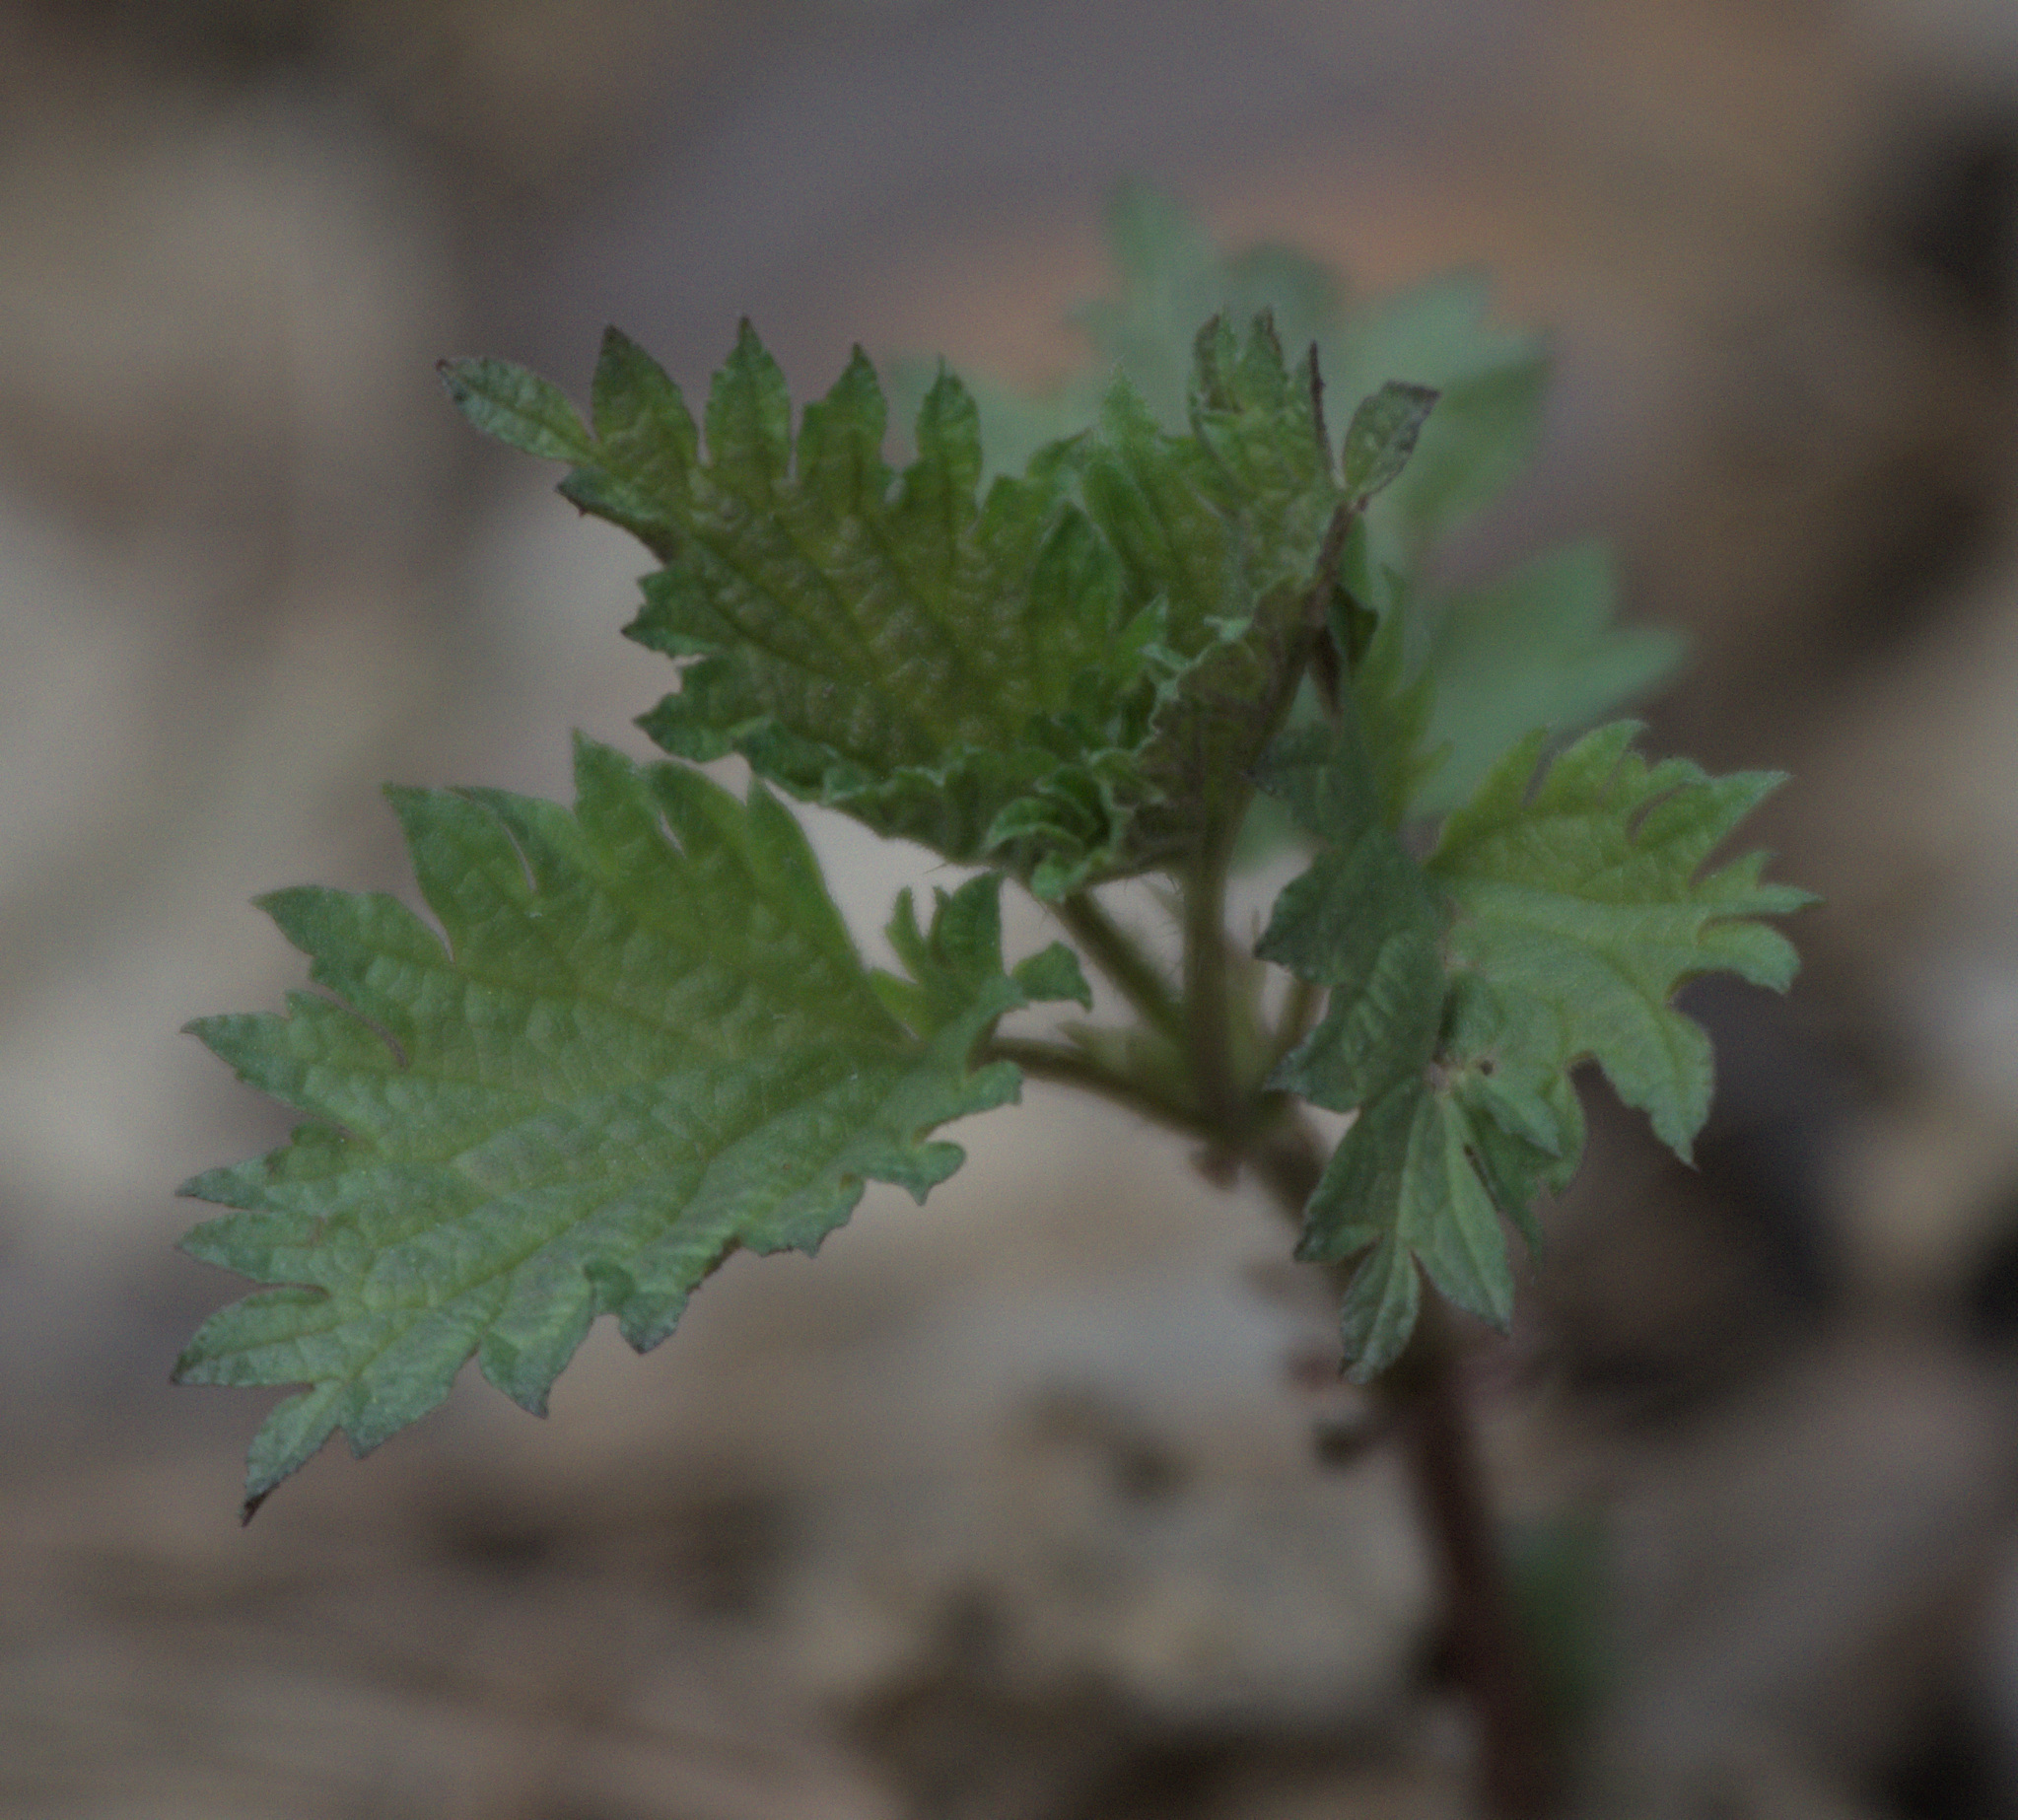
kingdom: Plantae
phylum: Tracheophyta
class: Magnoliopsida
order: Rosales
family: Urticaceae
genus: Urtica
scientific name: Urtica dioica
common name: Common nettle
